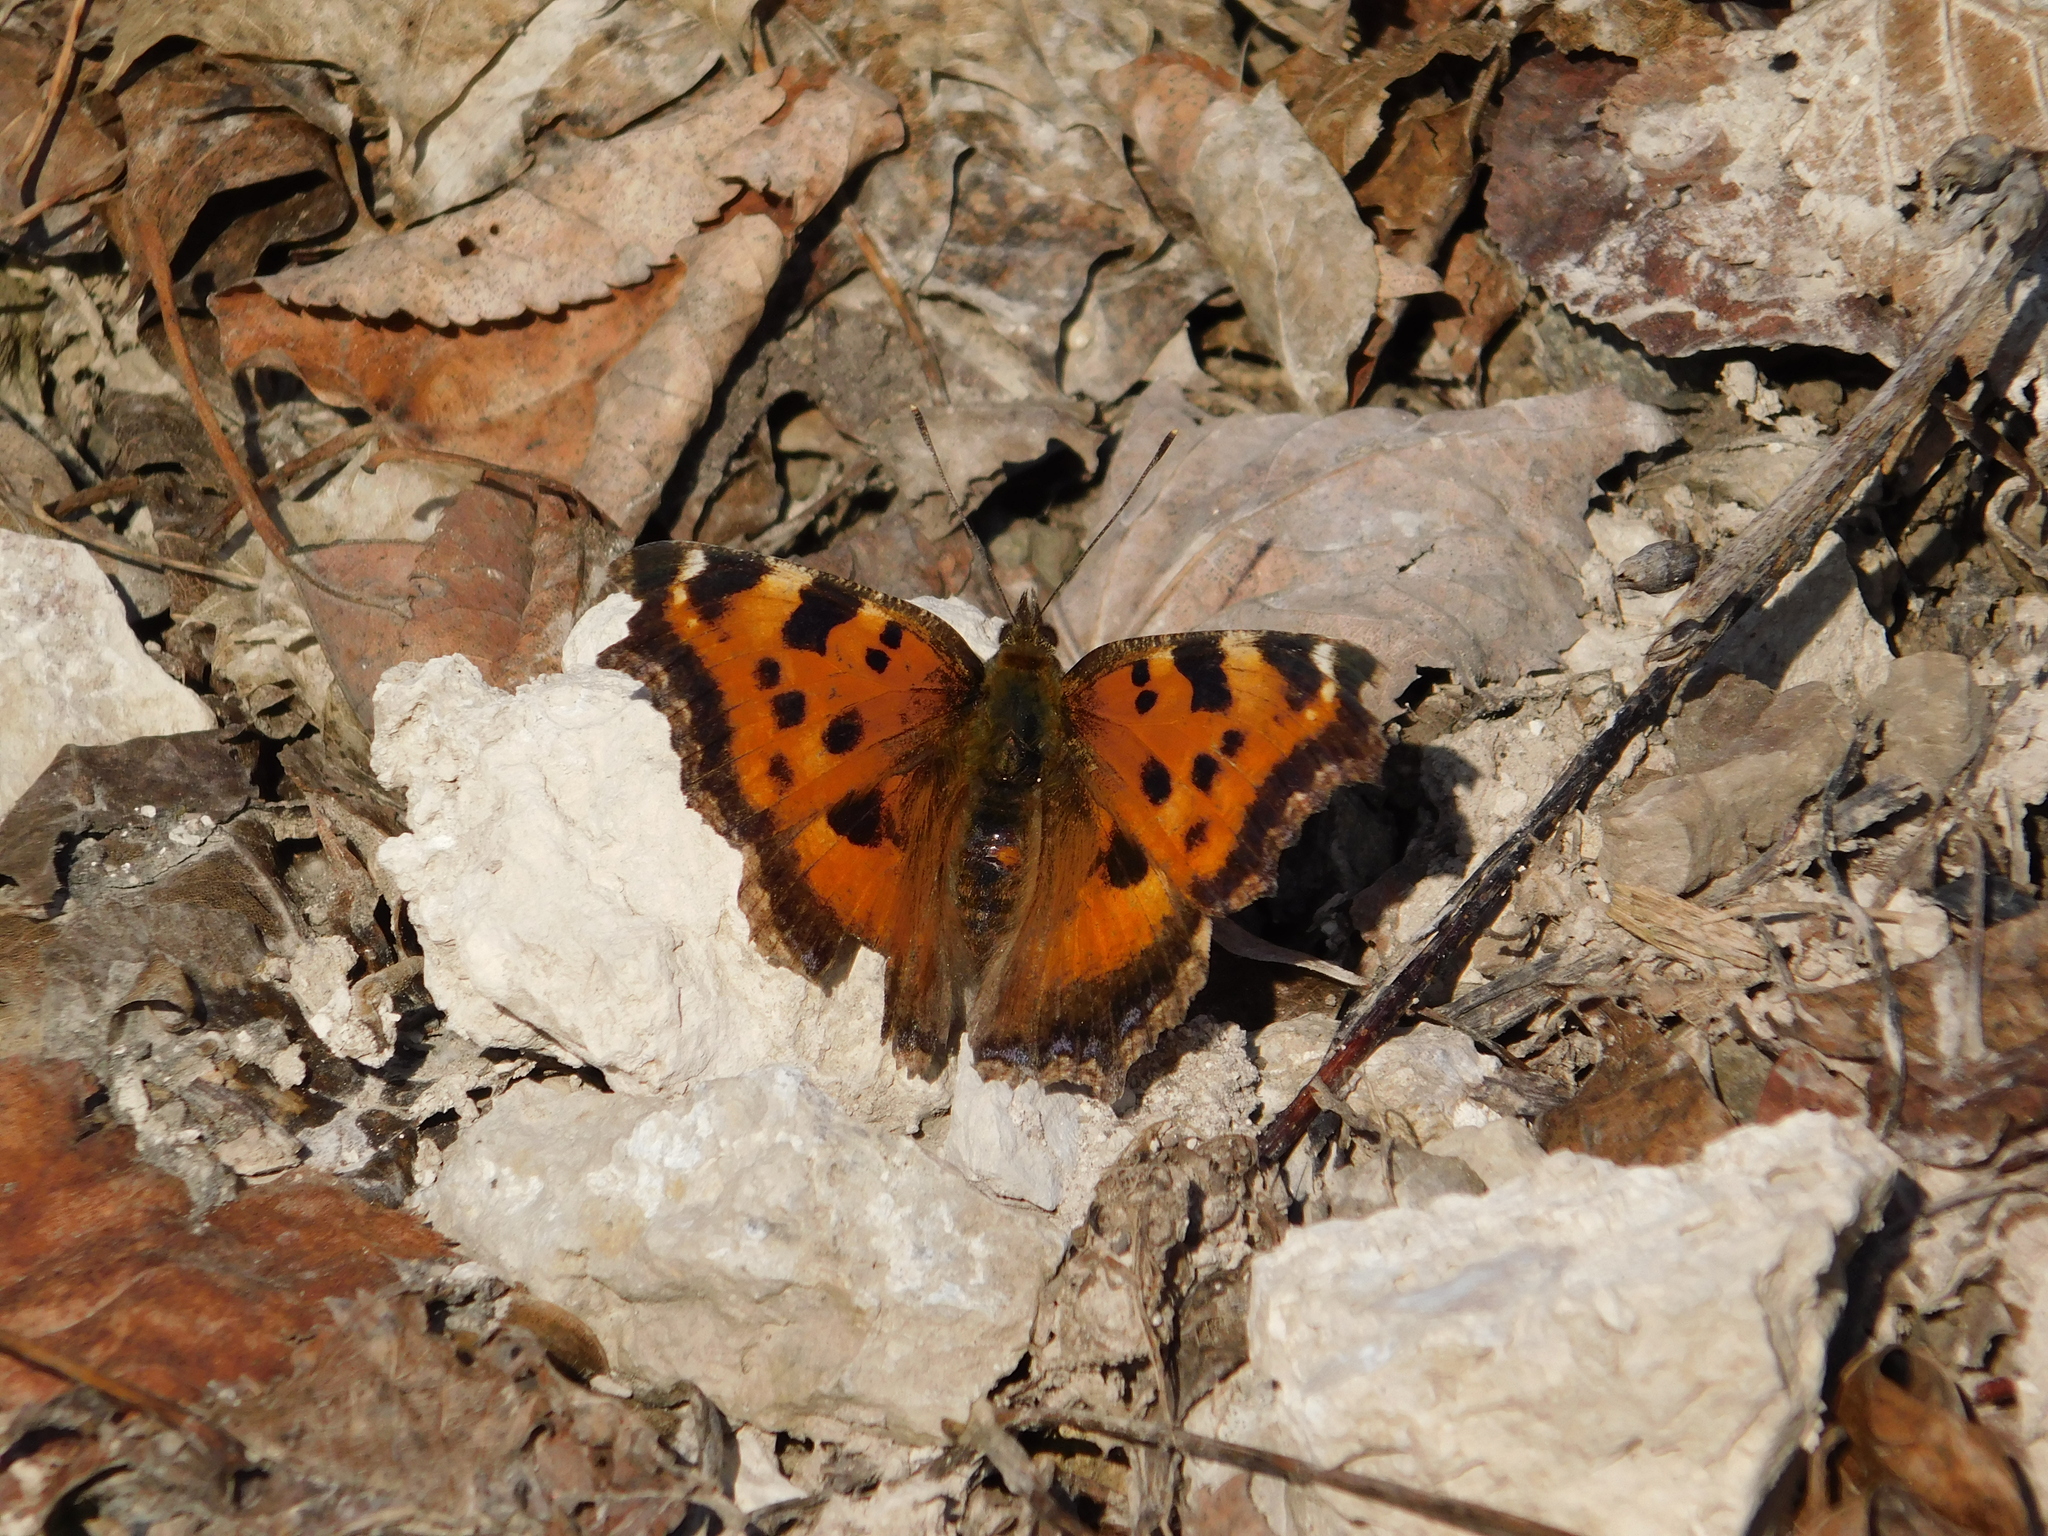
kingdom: Animalia
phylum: Arthropoda
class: Insecta
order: Lepidoptera
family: Nymphalidae
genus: Nymphalis
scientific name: Nymphalis xanthomelas
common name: Scarce tortoiseshell
